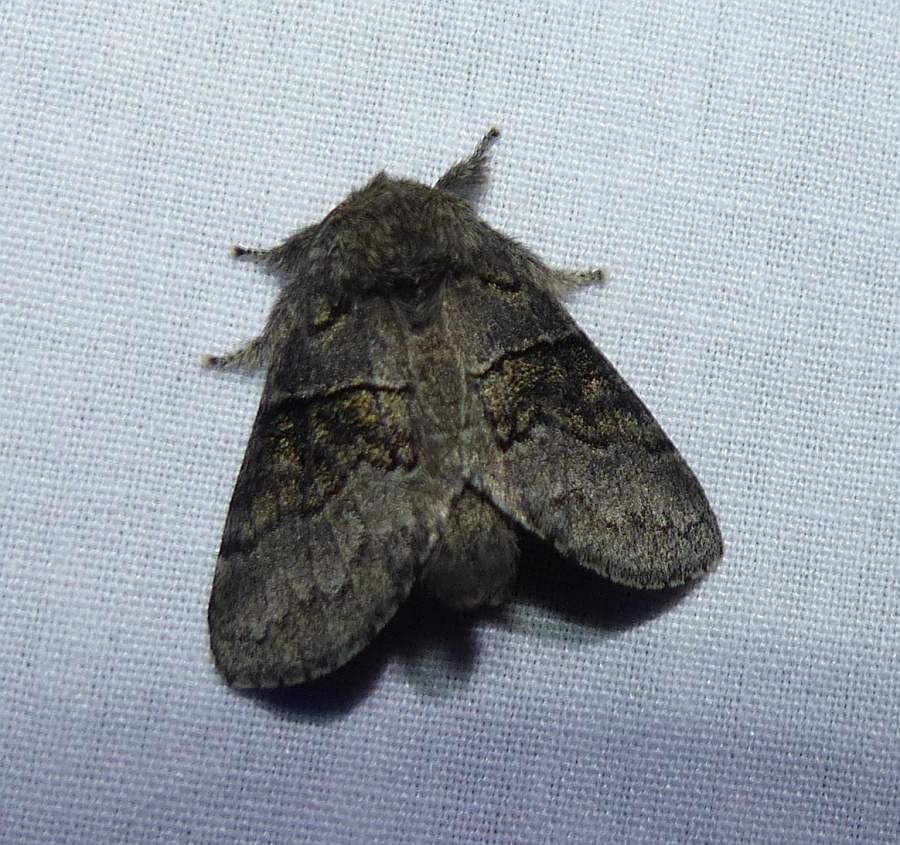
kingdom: Animalia
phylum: Arthropoda
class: Insecta
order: Lepidoptera
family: Notodontidae
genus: Gluphisia
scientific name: Gluphisia septentrionis
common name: Common gluphisia
